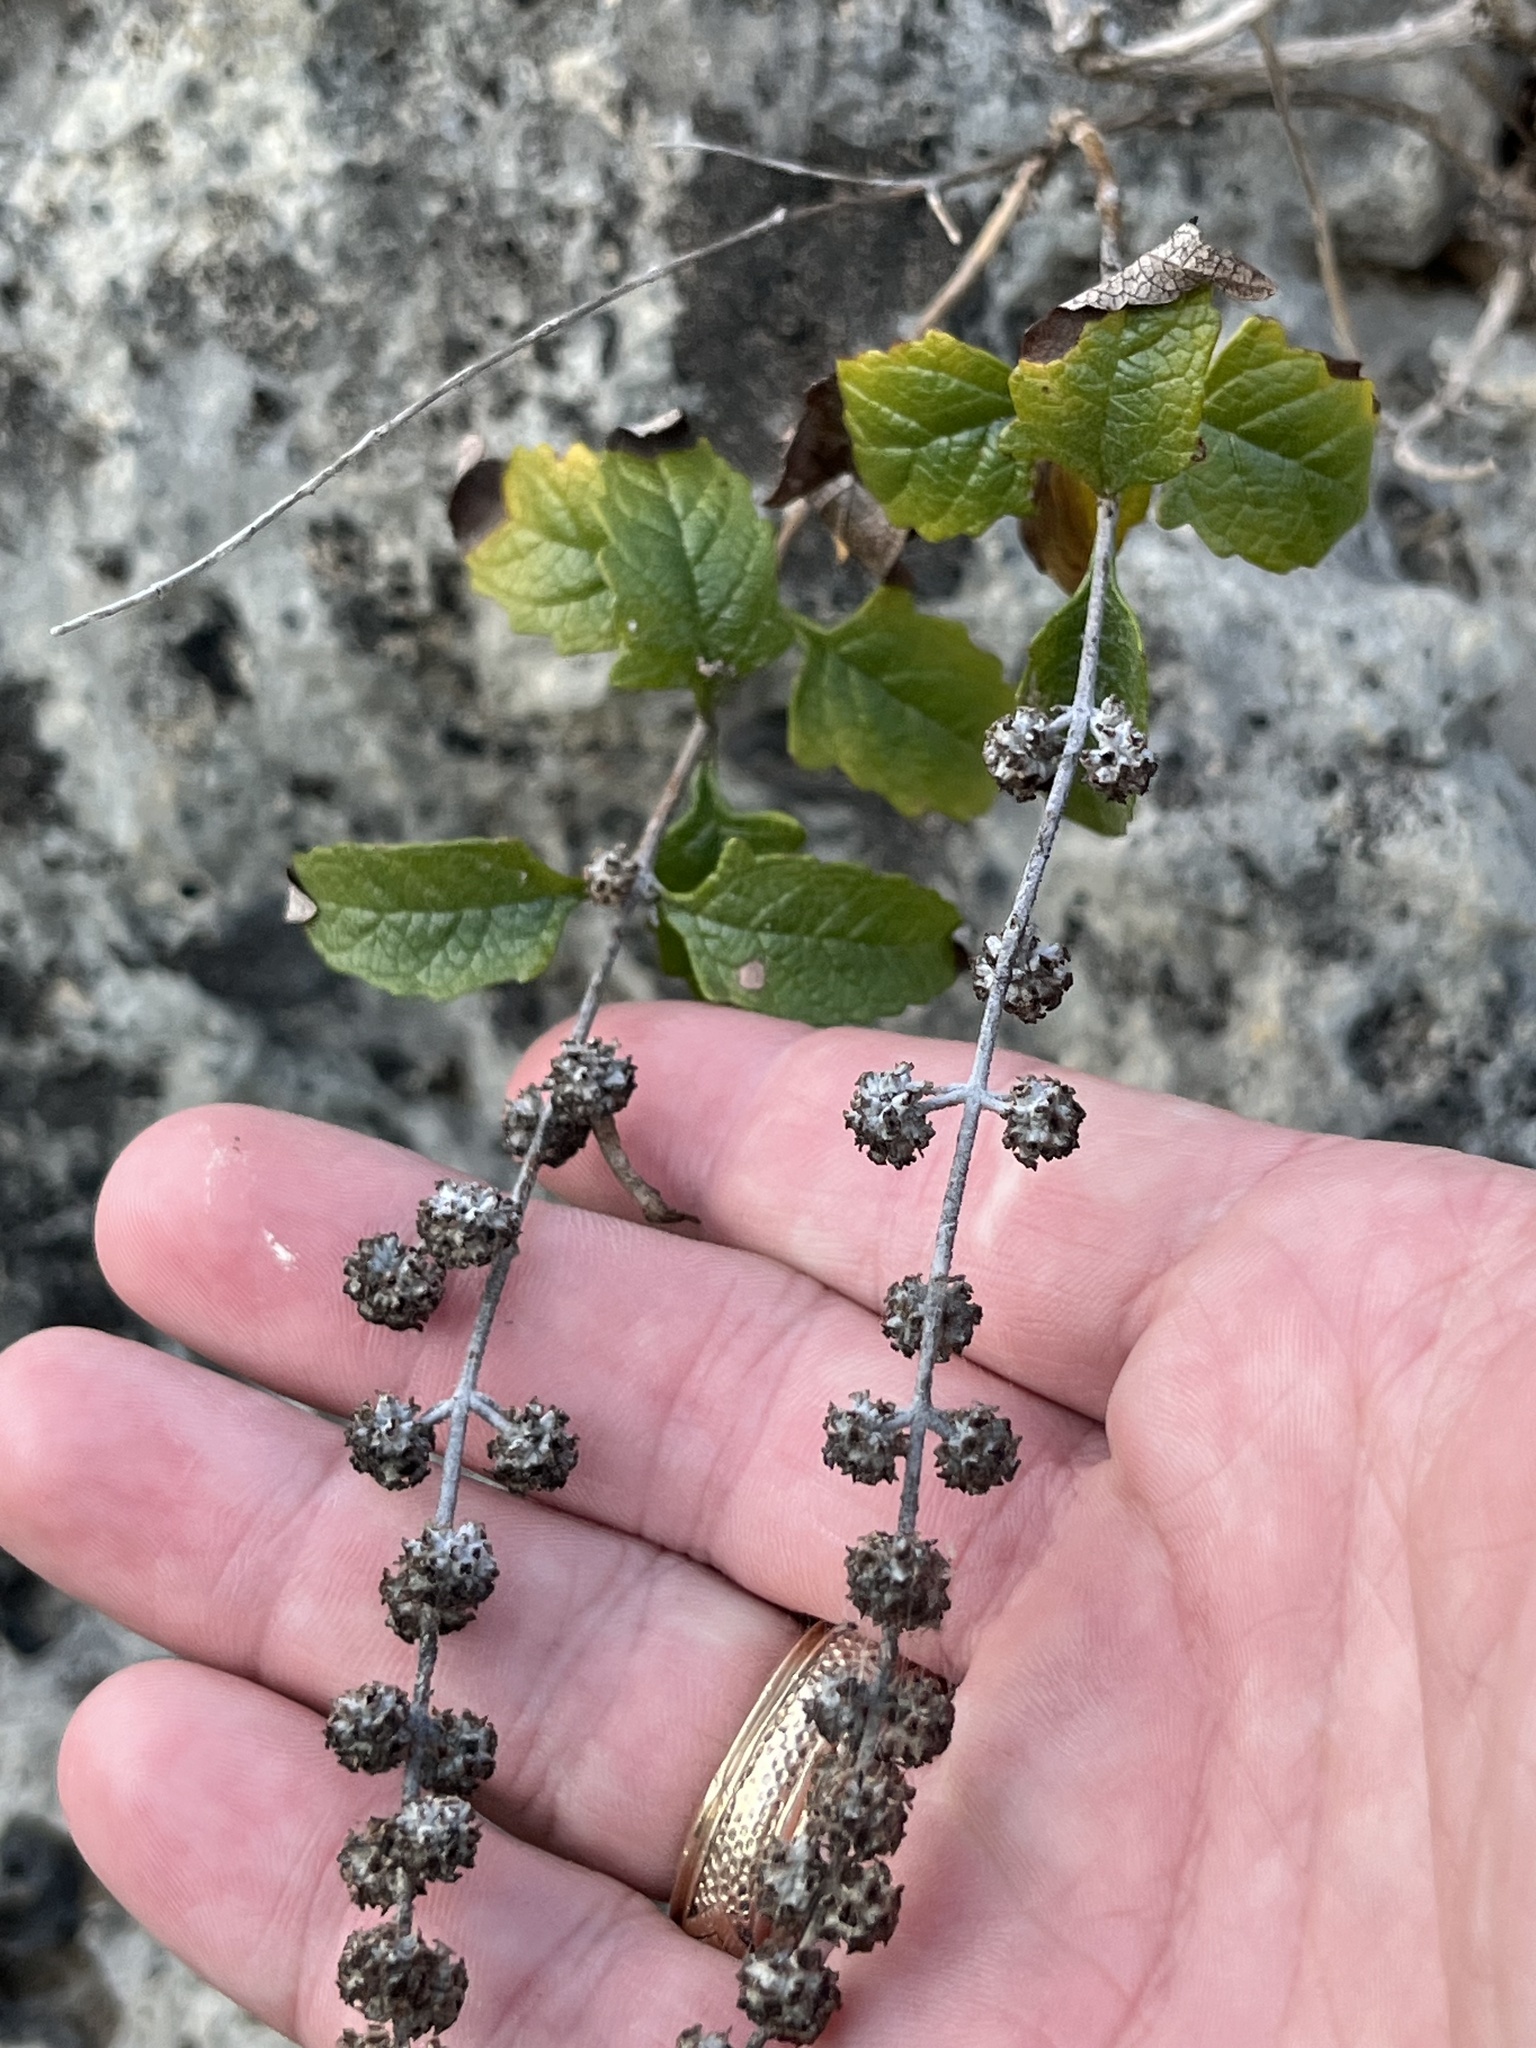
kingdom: Plantae
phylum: Tracheophyta
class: Magnoliopsida
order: Lamiales
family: Scrophulariaceae
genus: Buddleja
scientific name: Buddleja racemosa
